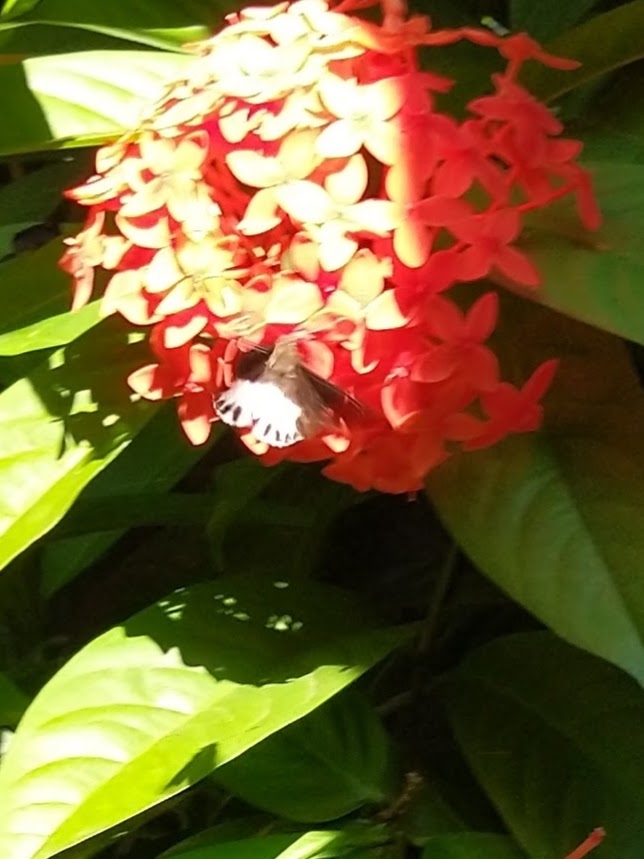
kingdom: Animalia
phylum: Arthropoda
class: Insecta
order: Lepidoptera
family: Hesperiidae
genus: Tagiades
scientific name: Tagiades litigiosa
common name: Water snow flat
